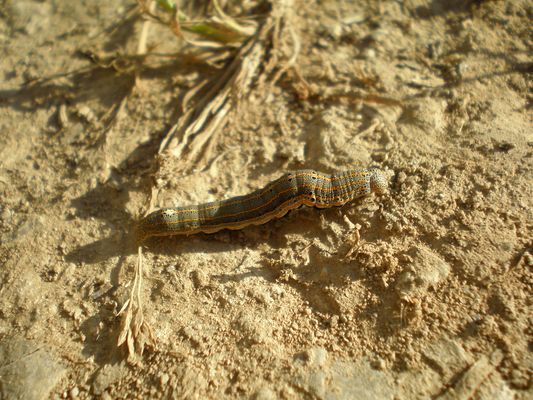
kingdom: Animalia
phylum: Arthropoda
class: Insecta
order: Lepidoptera
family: Noctuidae
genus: Aedia
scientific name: Aedia leucomelas
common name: Sorcerer
